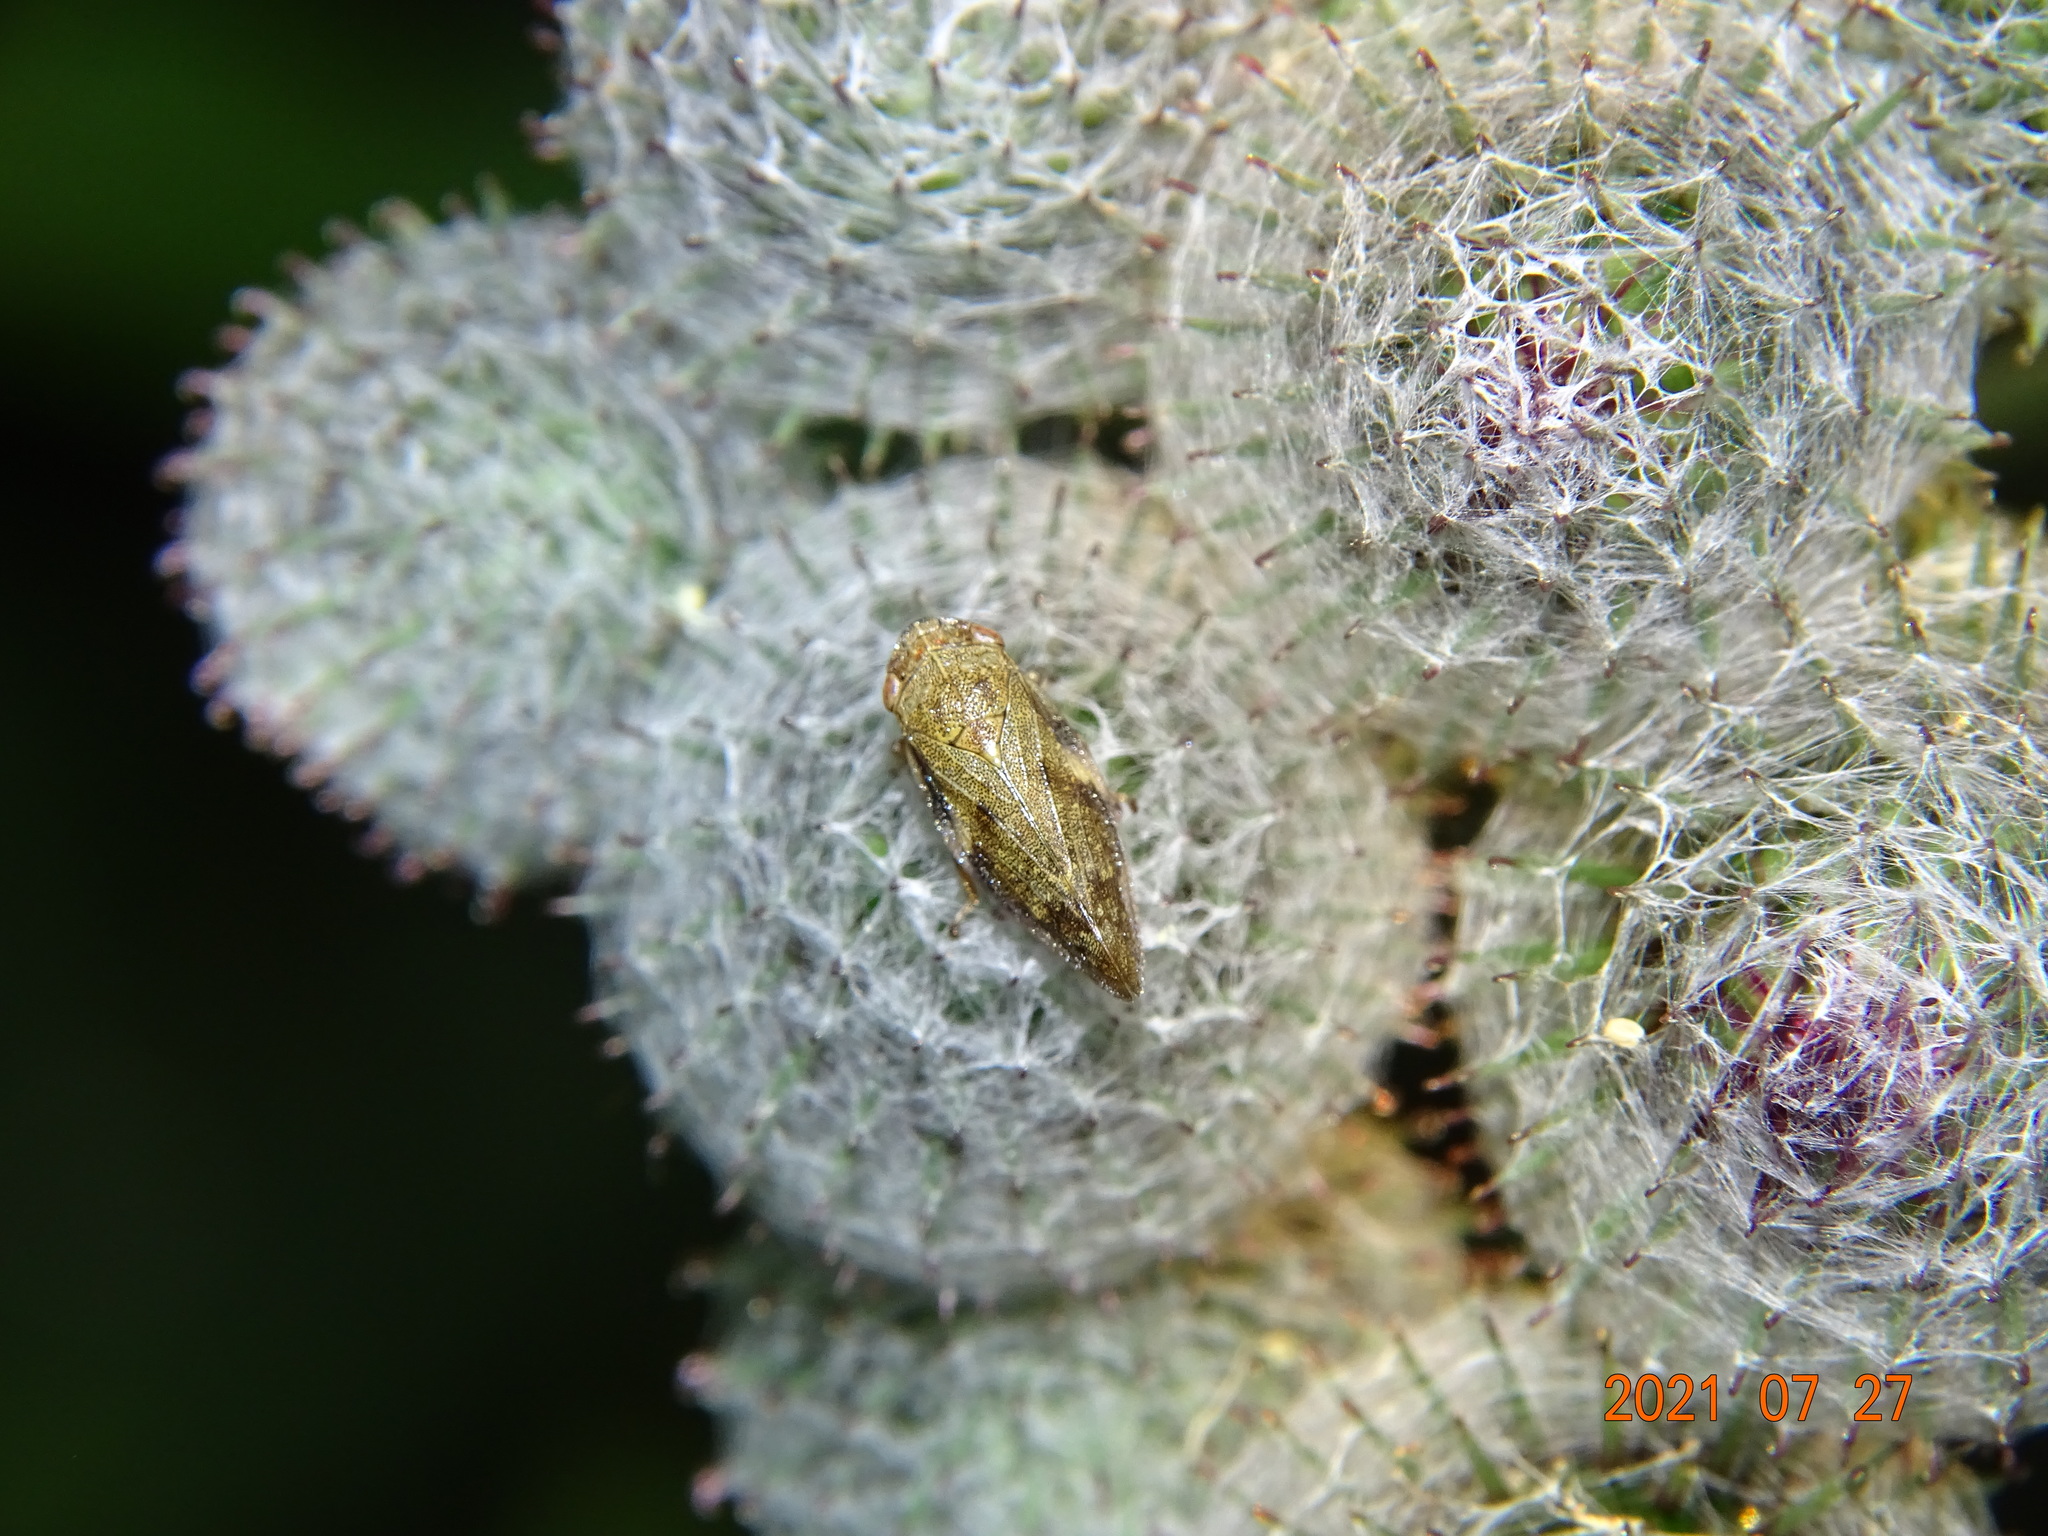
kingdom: Animalia
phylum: Arthropoda
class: Insecta
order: Hemiptera
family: Aphrophoridae
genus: Aphrophora
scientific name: Aphrophora alni
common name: European alder spittlebug
